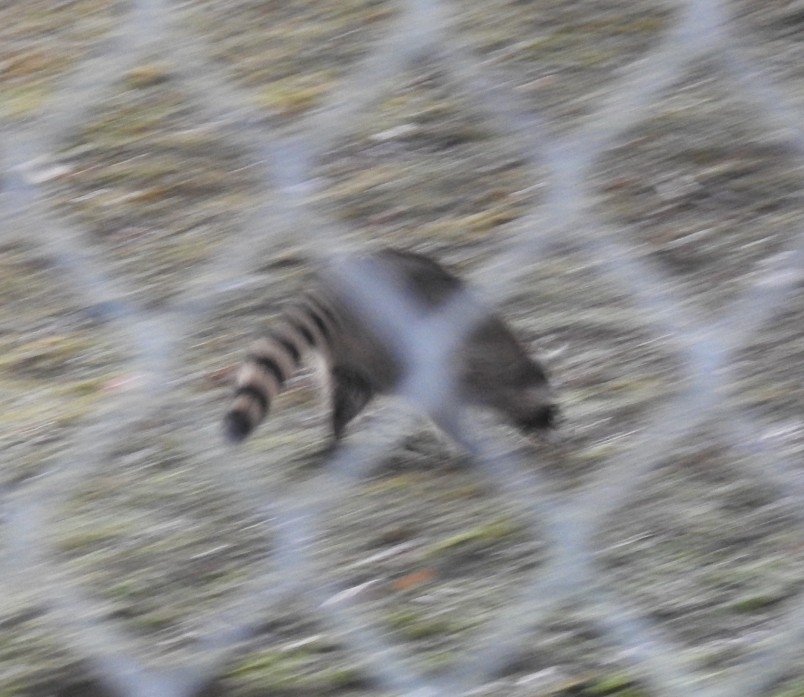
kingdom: Animalia
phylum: Chordata
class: Mammalia
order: Carnivora
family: Procyonidae
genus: Procyon
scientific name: Procyon lotor
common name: Raccoon
